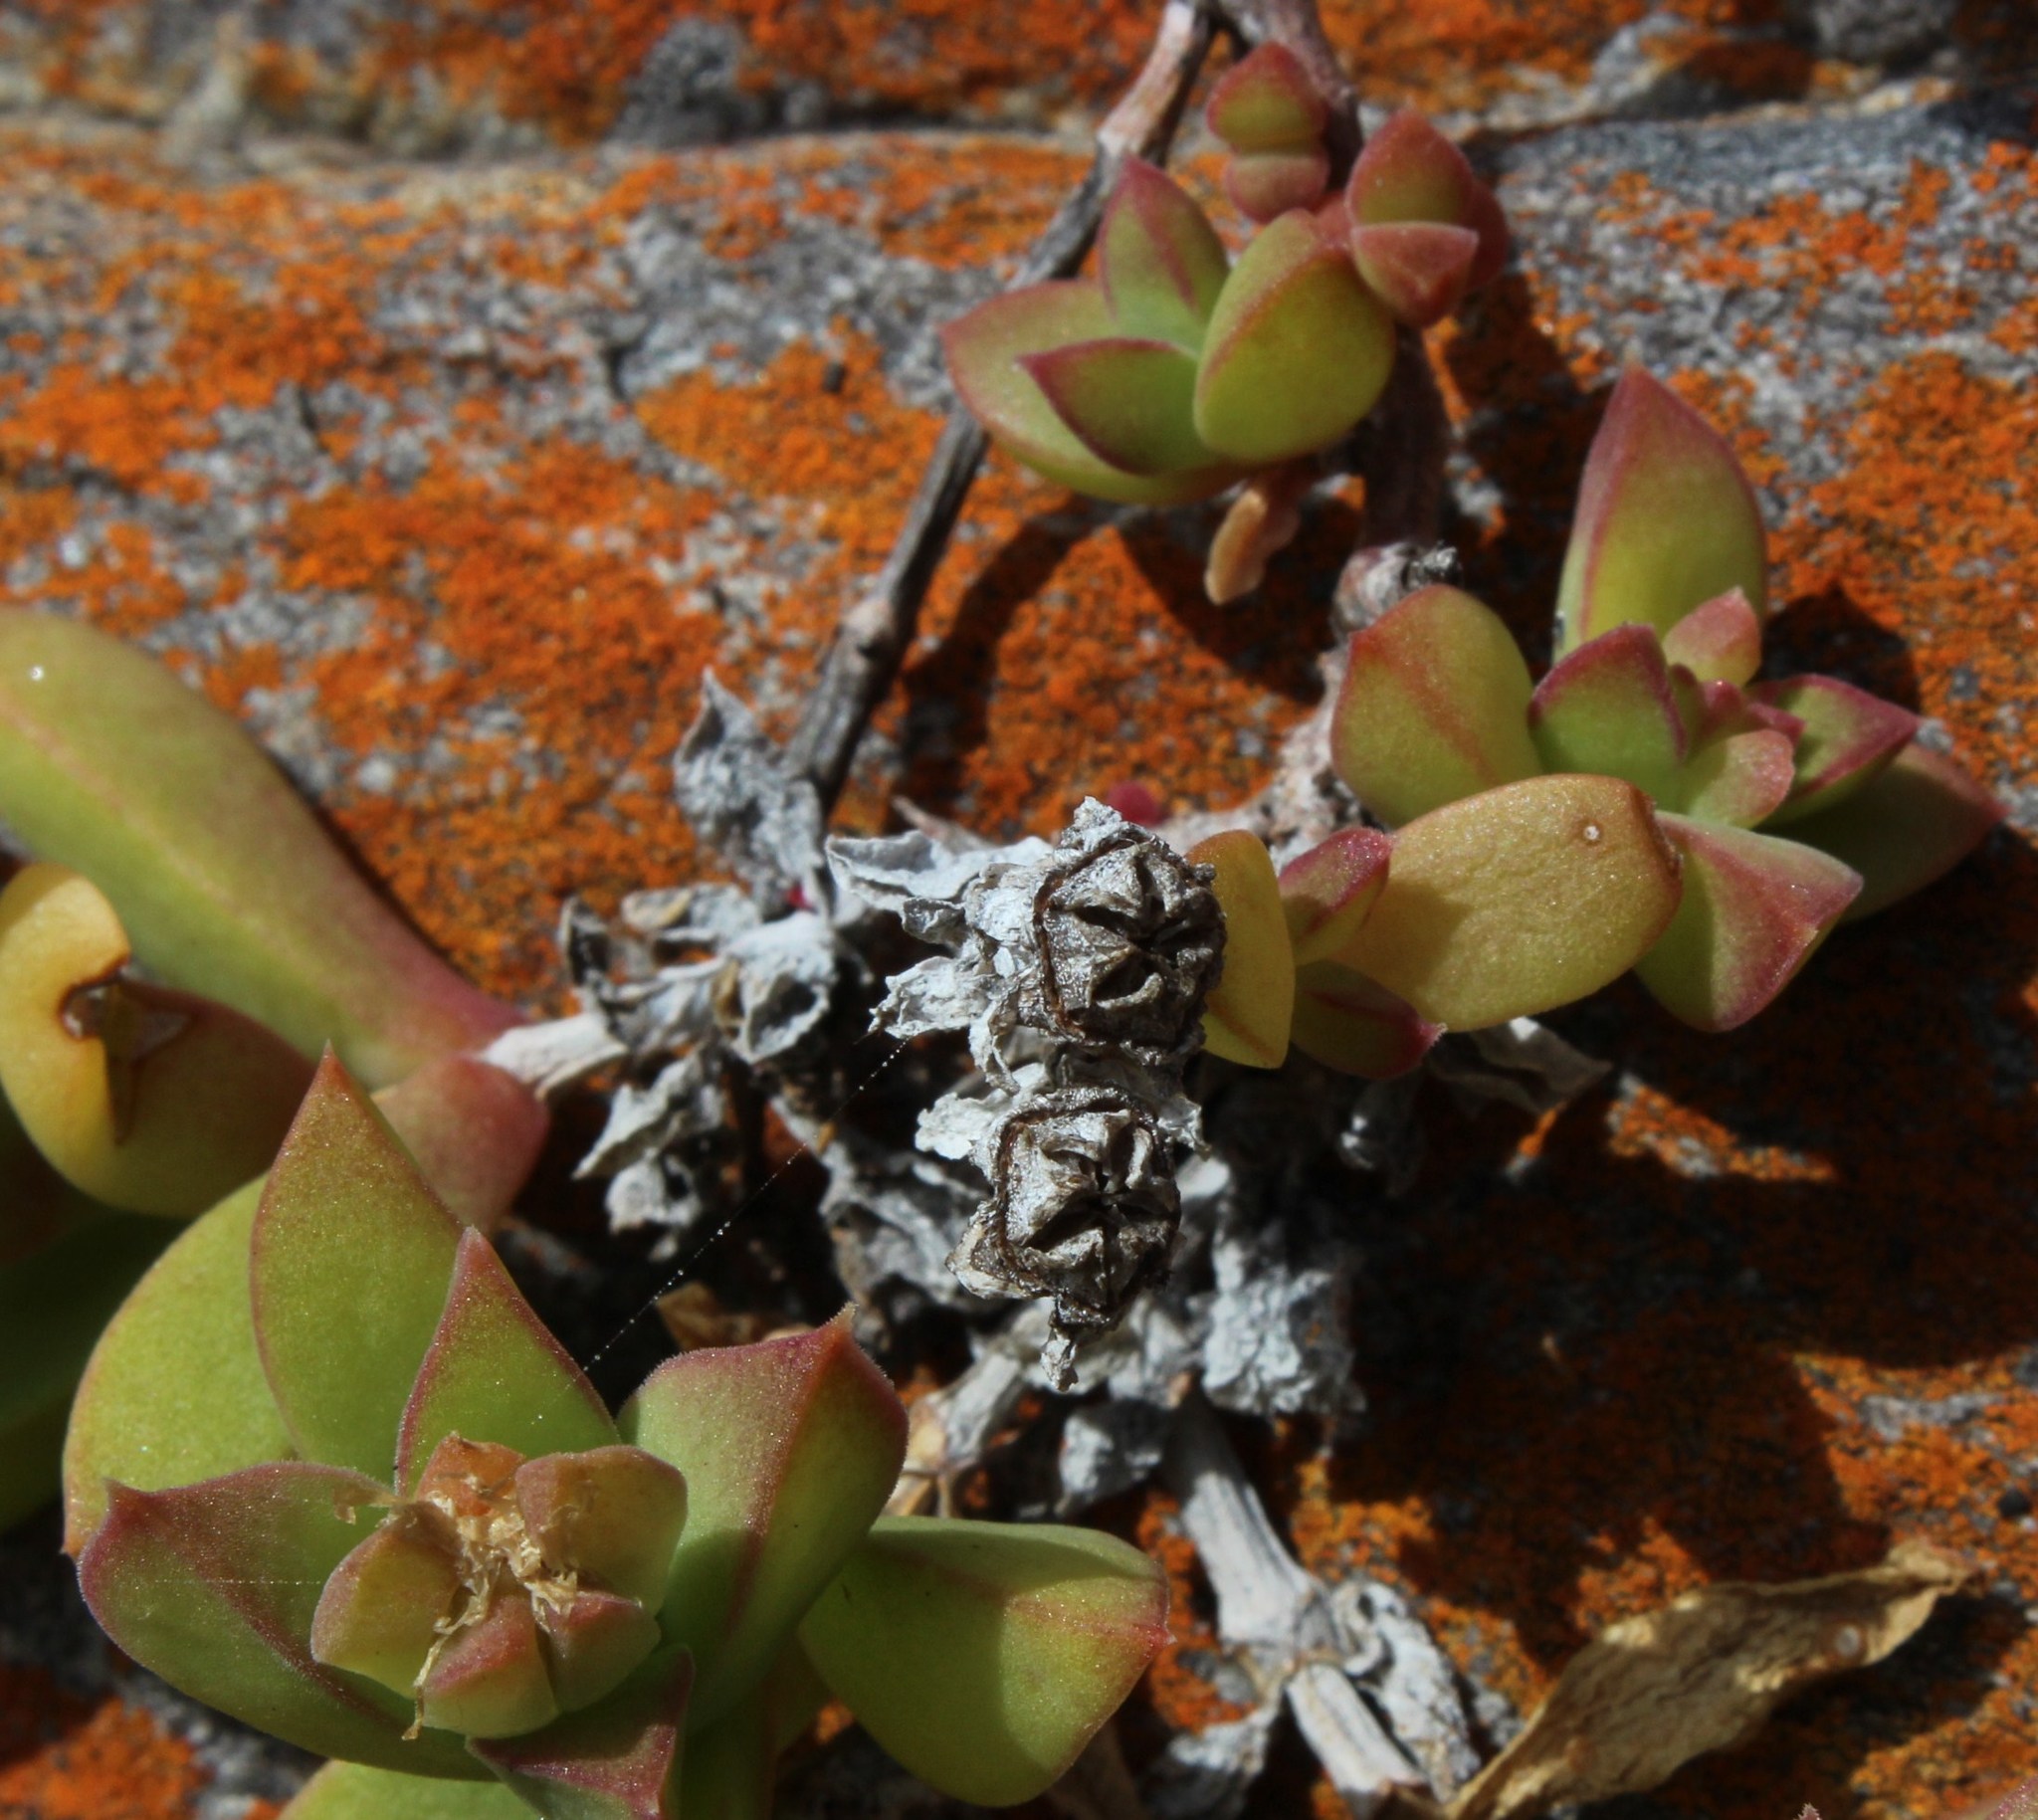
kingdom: Plantae
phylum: Tracheophyta
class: Magnoliopsida
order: Caryophyllales
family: Aizoaceae
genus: Delosperma
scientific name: Delosperma patersoniae
